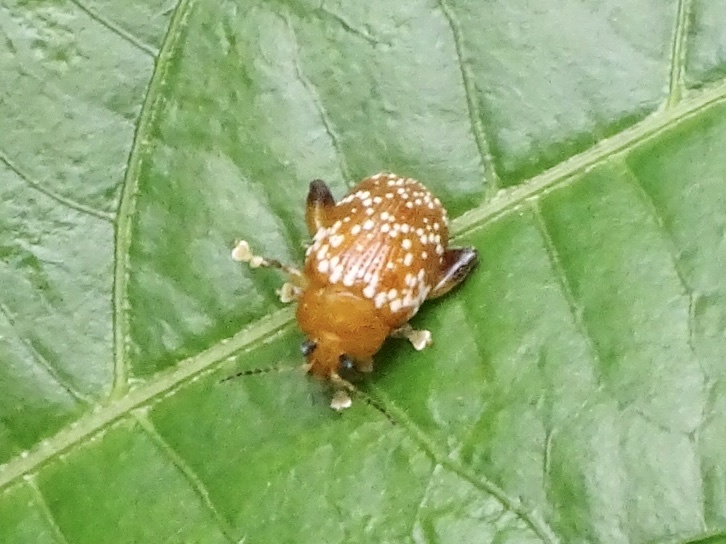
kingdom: Animalia
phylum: Arthropoda
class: Insecta
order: Coleoptera
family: Chrysomelidae
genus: Asiophrida
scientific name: Asiophrida
